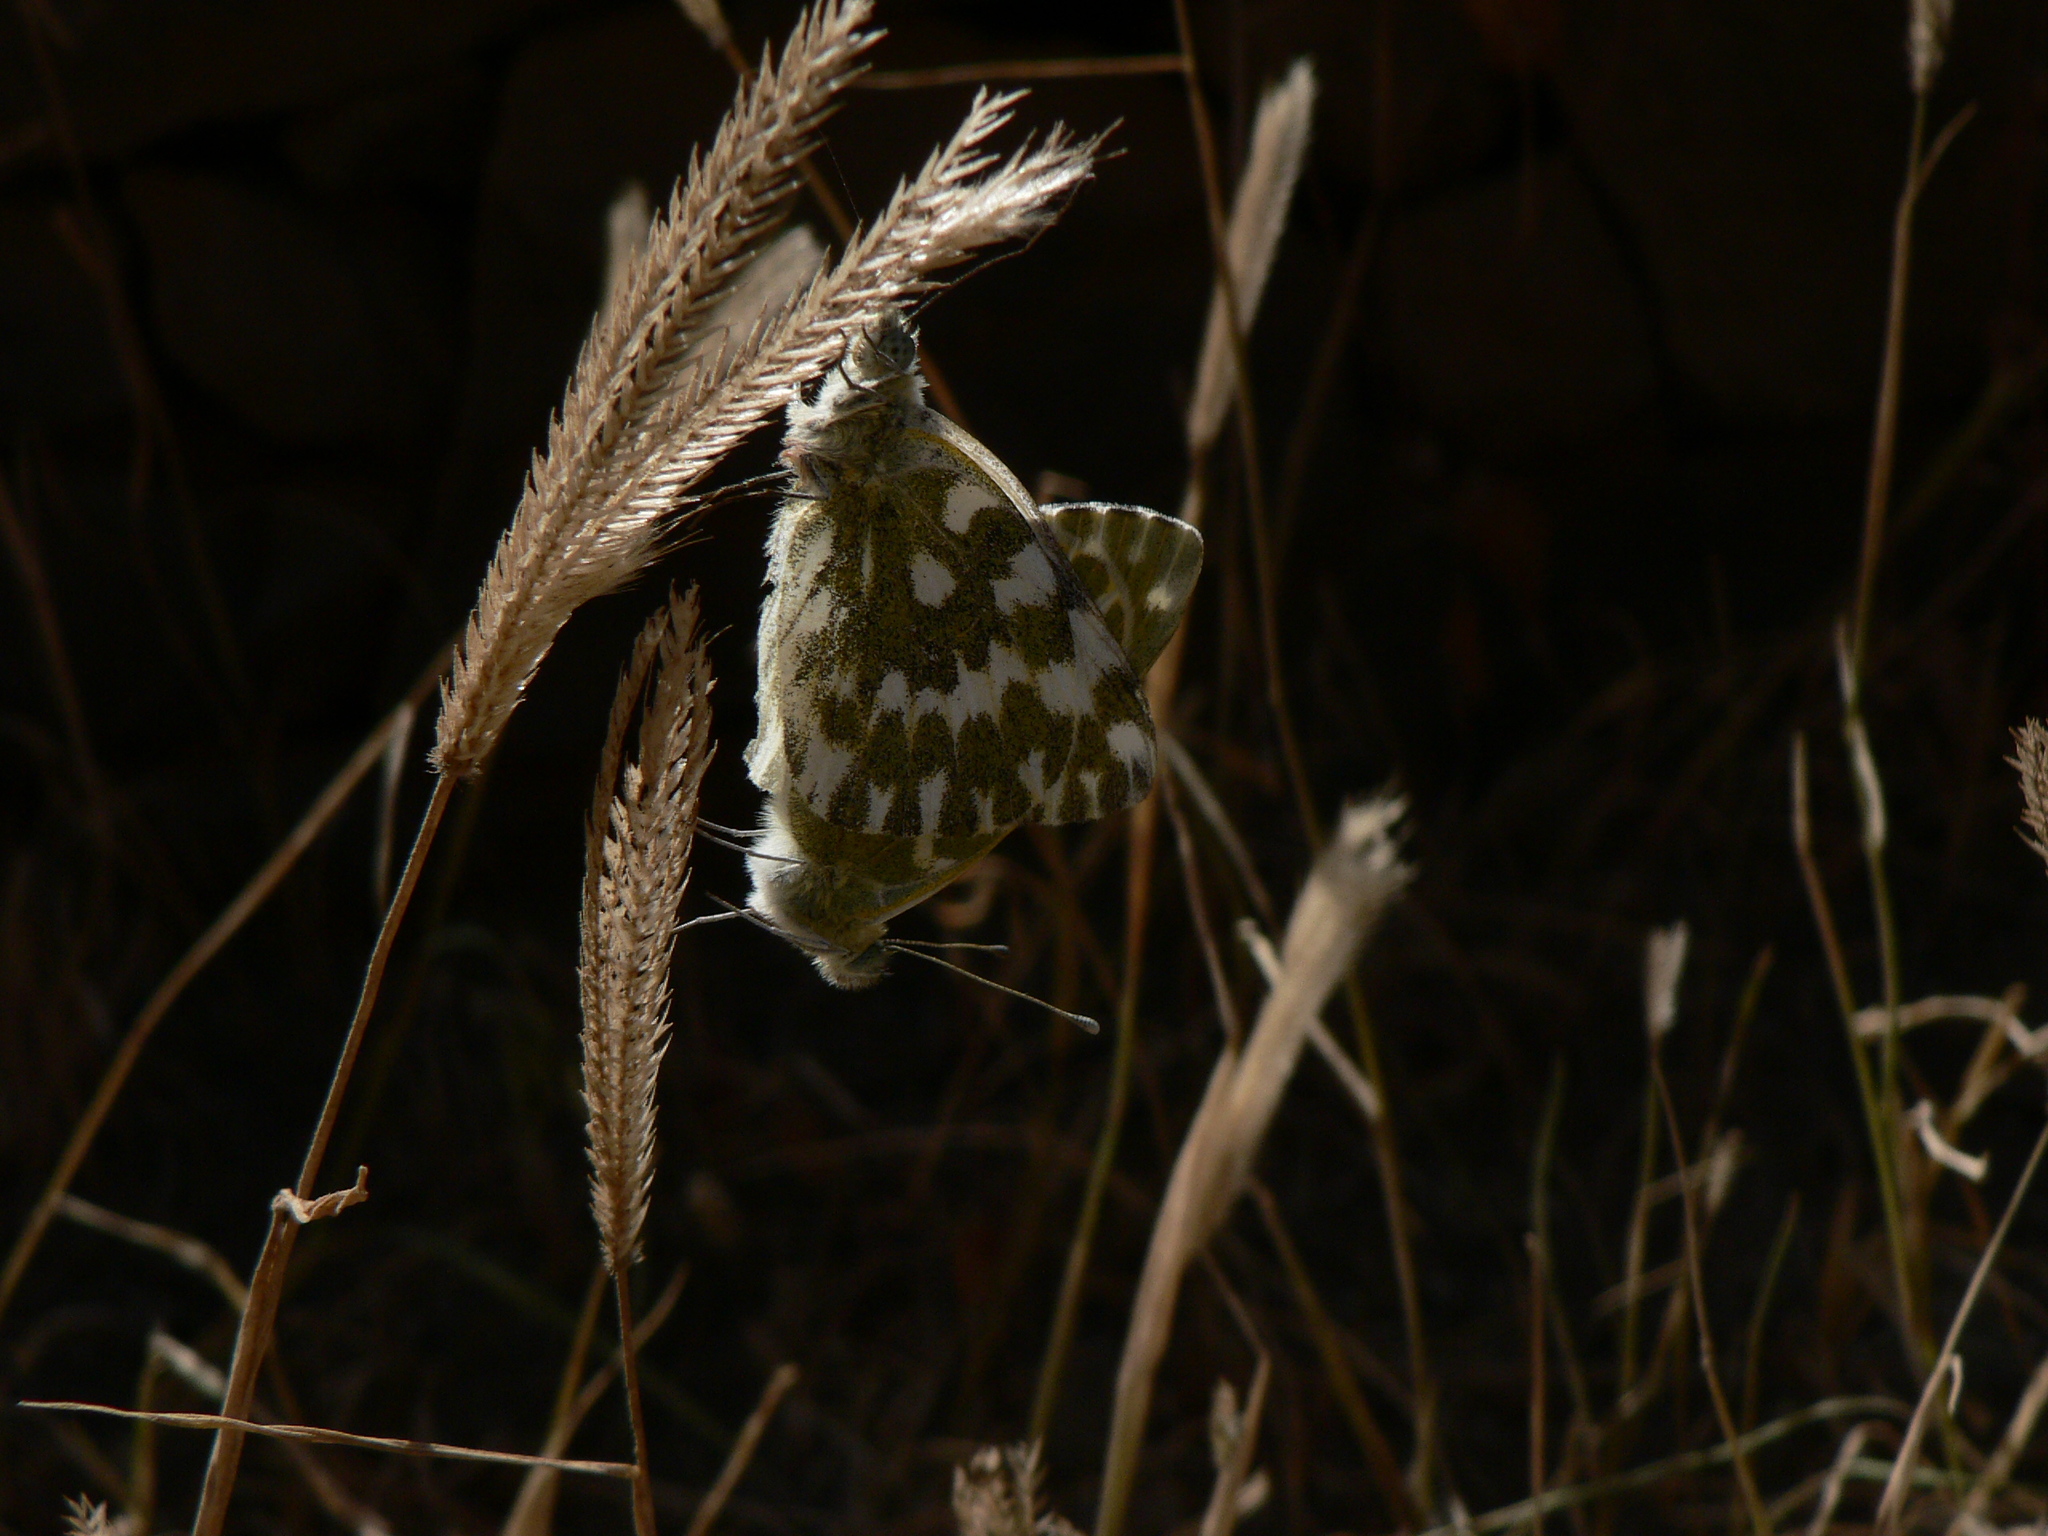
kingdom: Animalia
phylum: Arthropoda
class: Insecta
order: Lepidoptera
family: Pieridae
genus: Pontia
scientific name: Pontia daplidice
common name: Bath white
